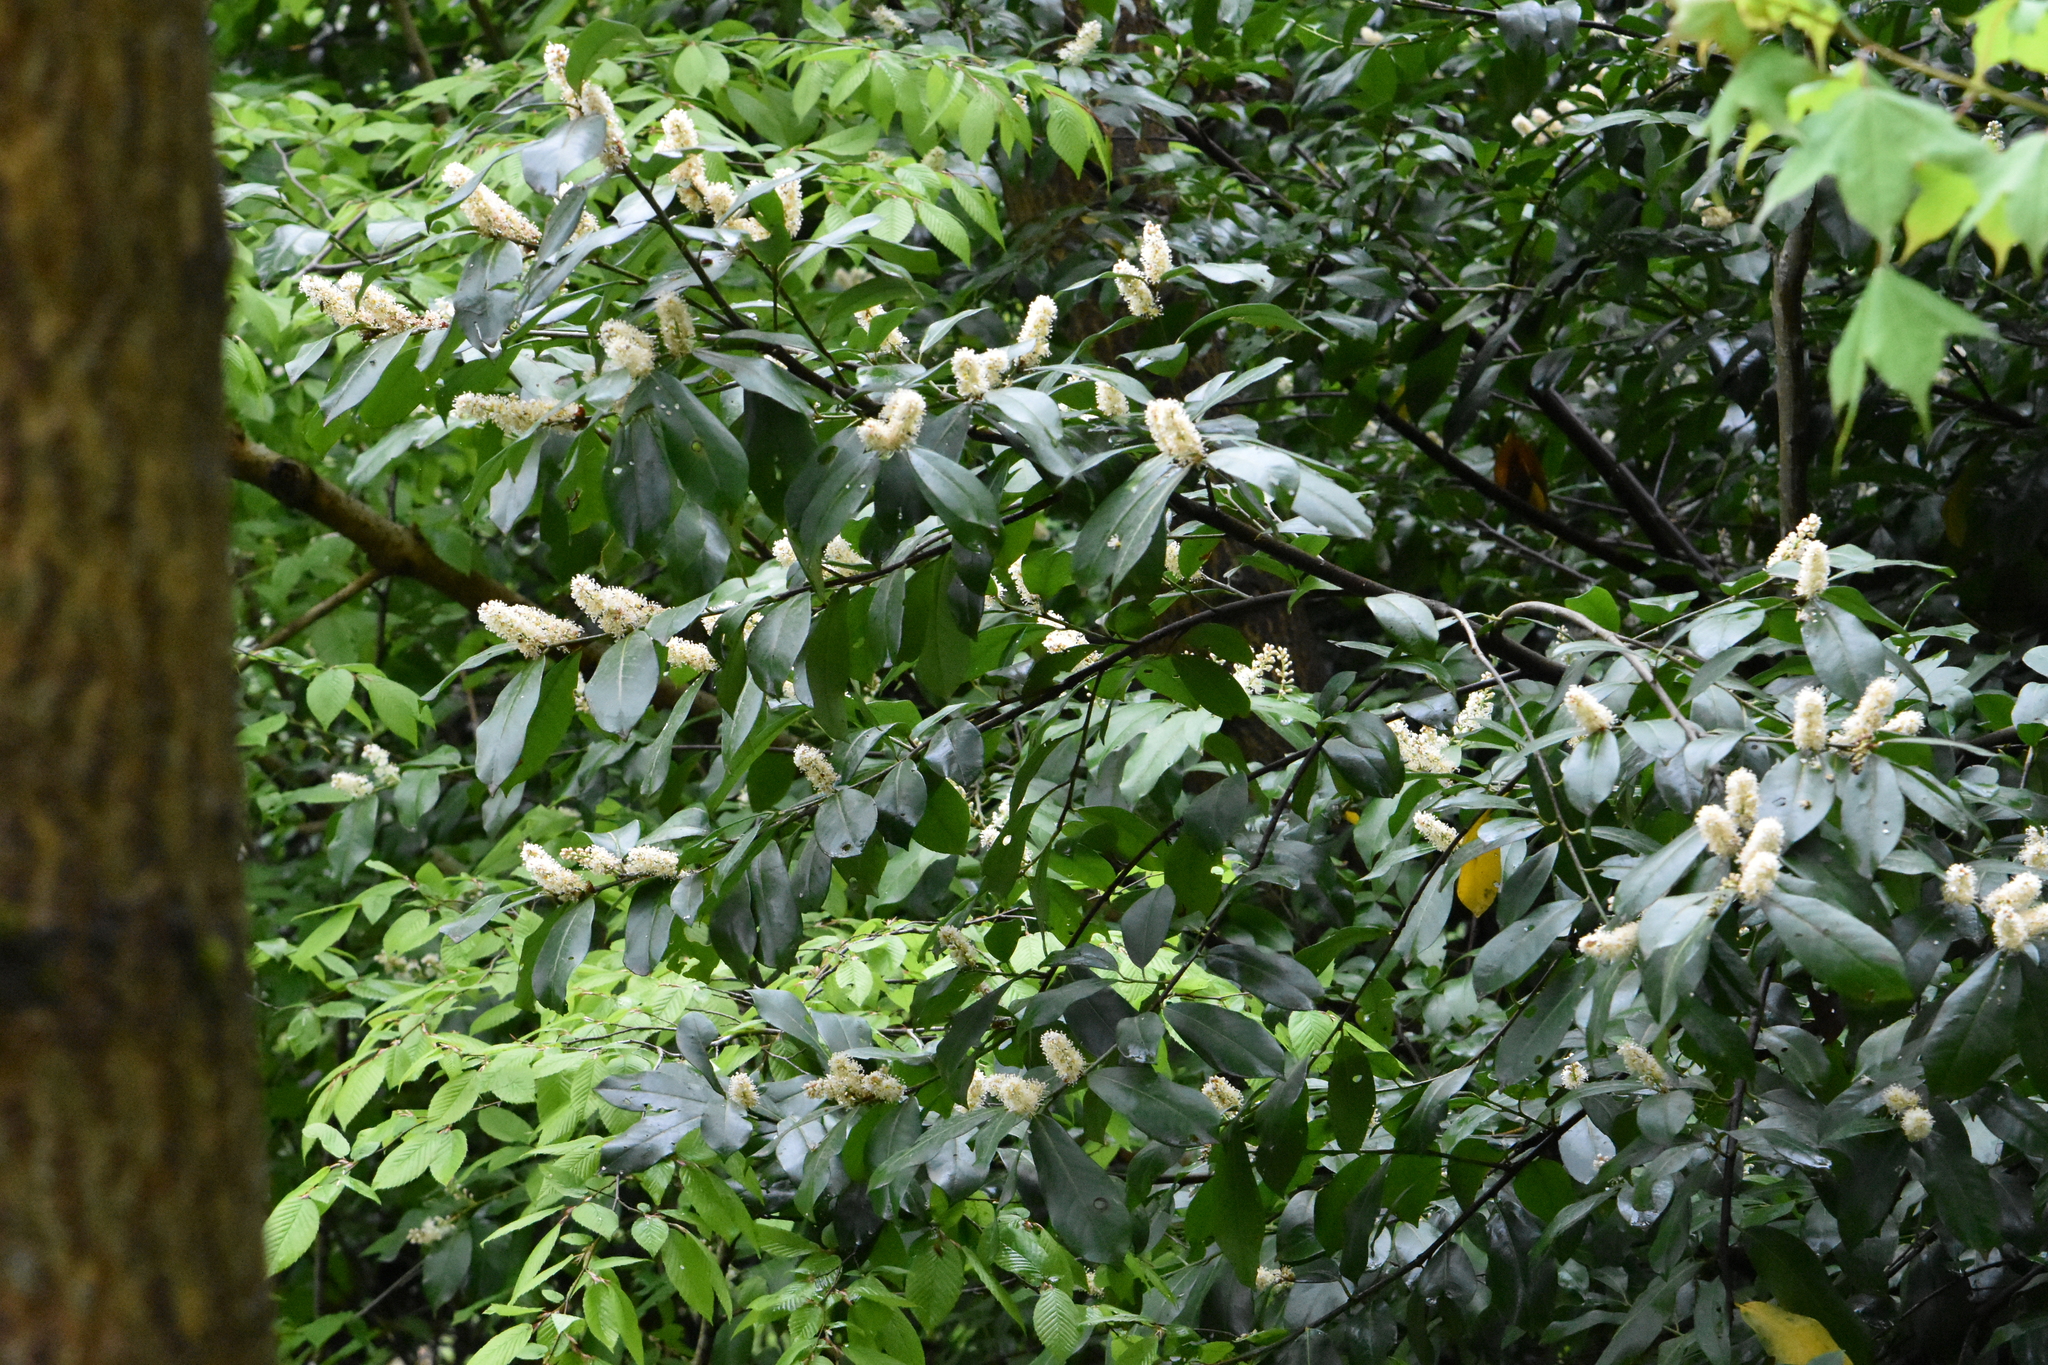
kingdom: Plantae
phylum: Tracheophyta
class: Magnoliopsida
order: Rosales
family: Rosaceae
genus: Prunus
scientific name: Prunus laurocerasus
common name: Cherry laurel
